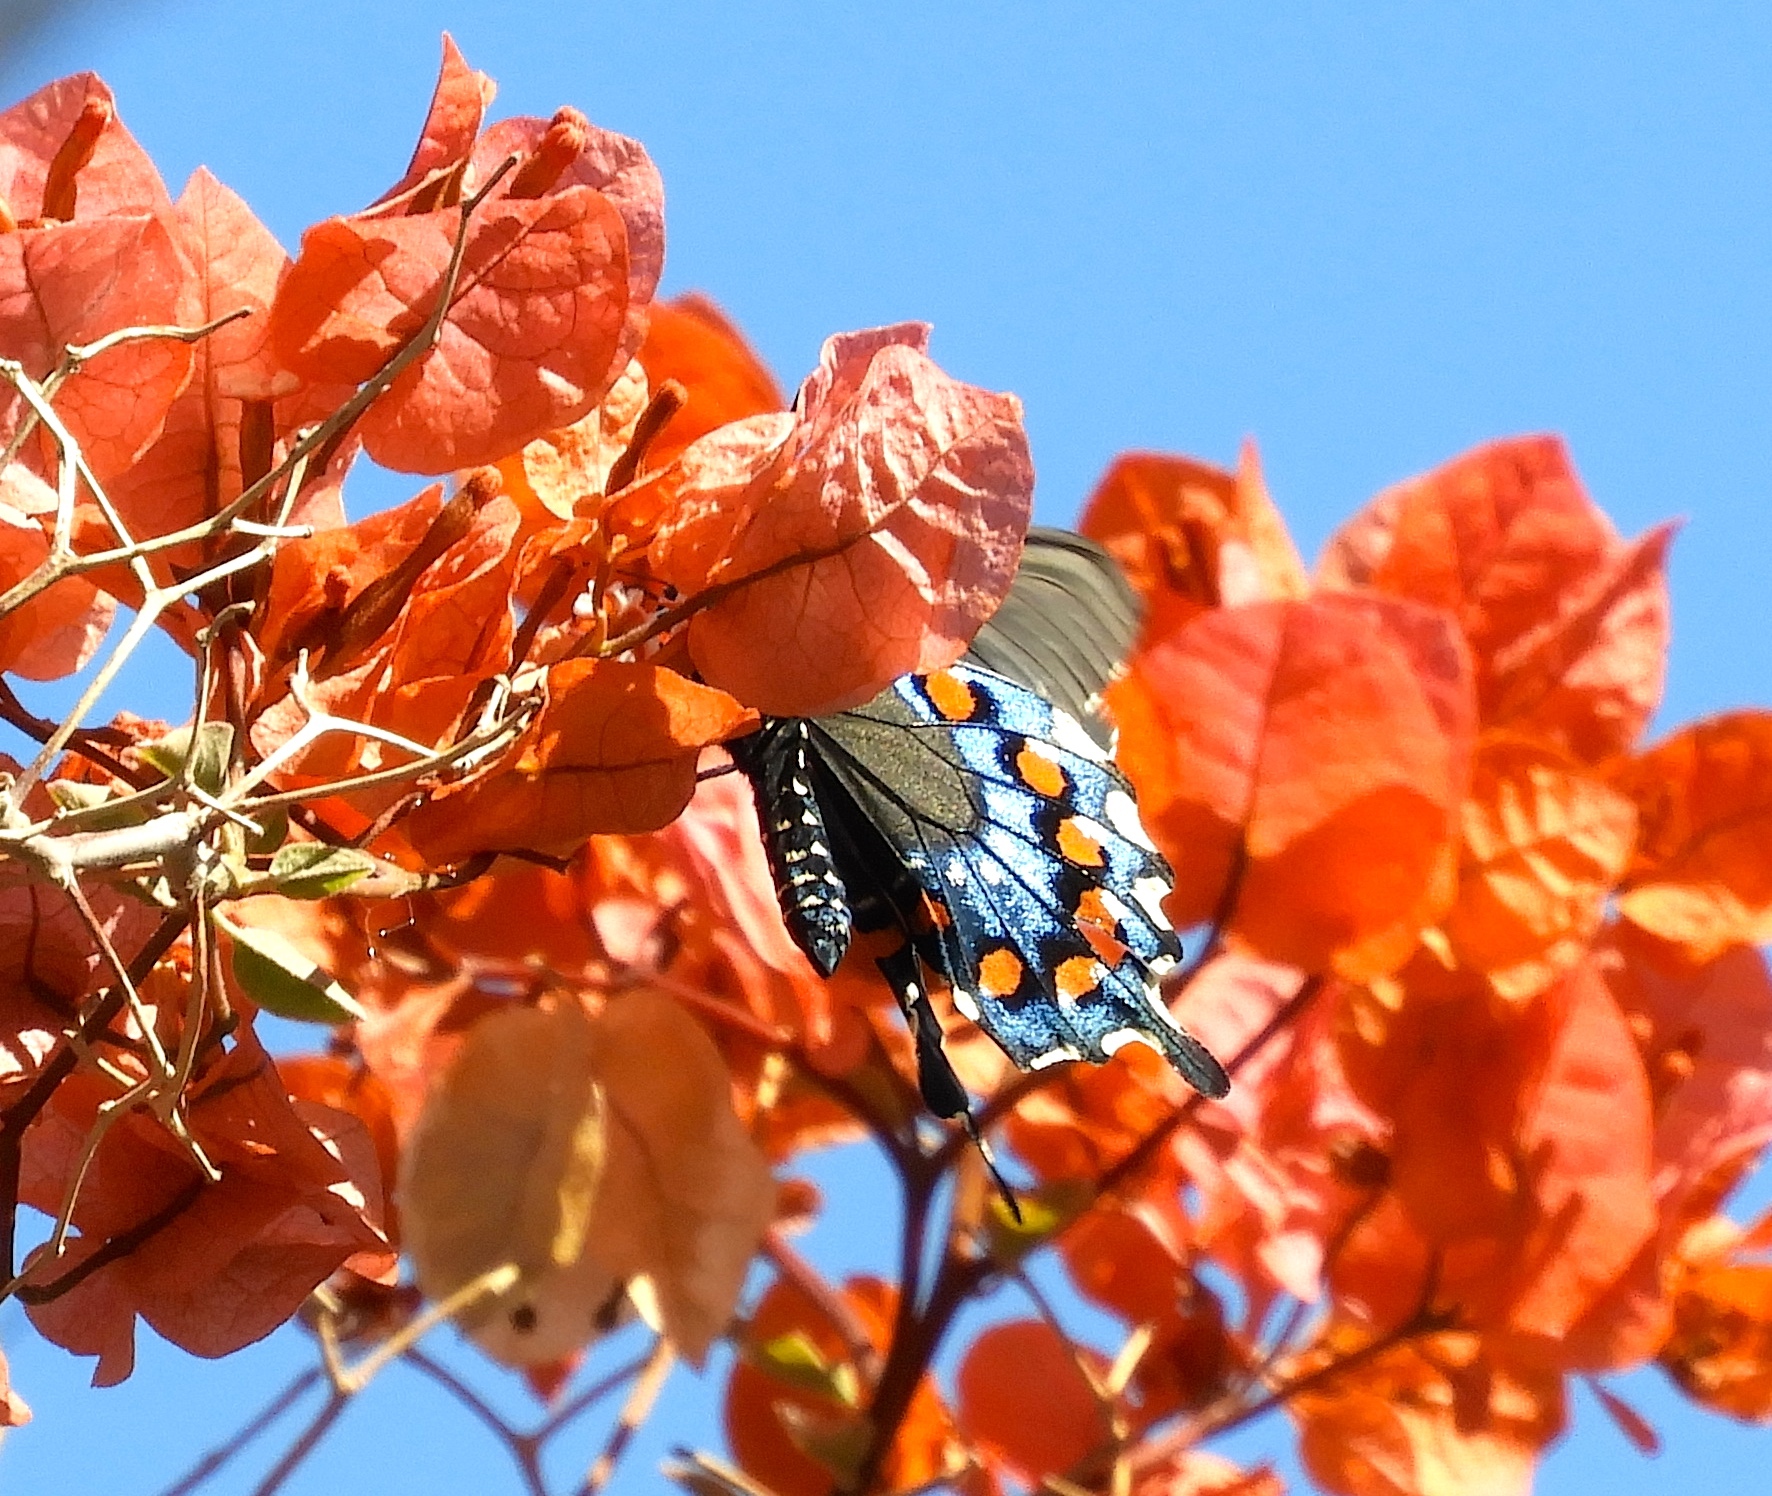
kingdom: Animalia
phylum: Arthropoda
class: Insecta
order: Lepidoptera
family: Papilionidae
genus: Battus
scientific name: Battus philenor
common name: Pipevine swallowtail
